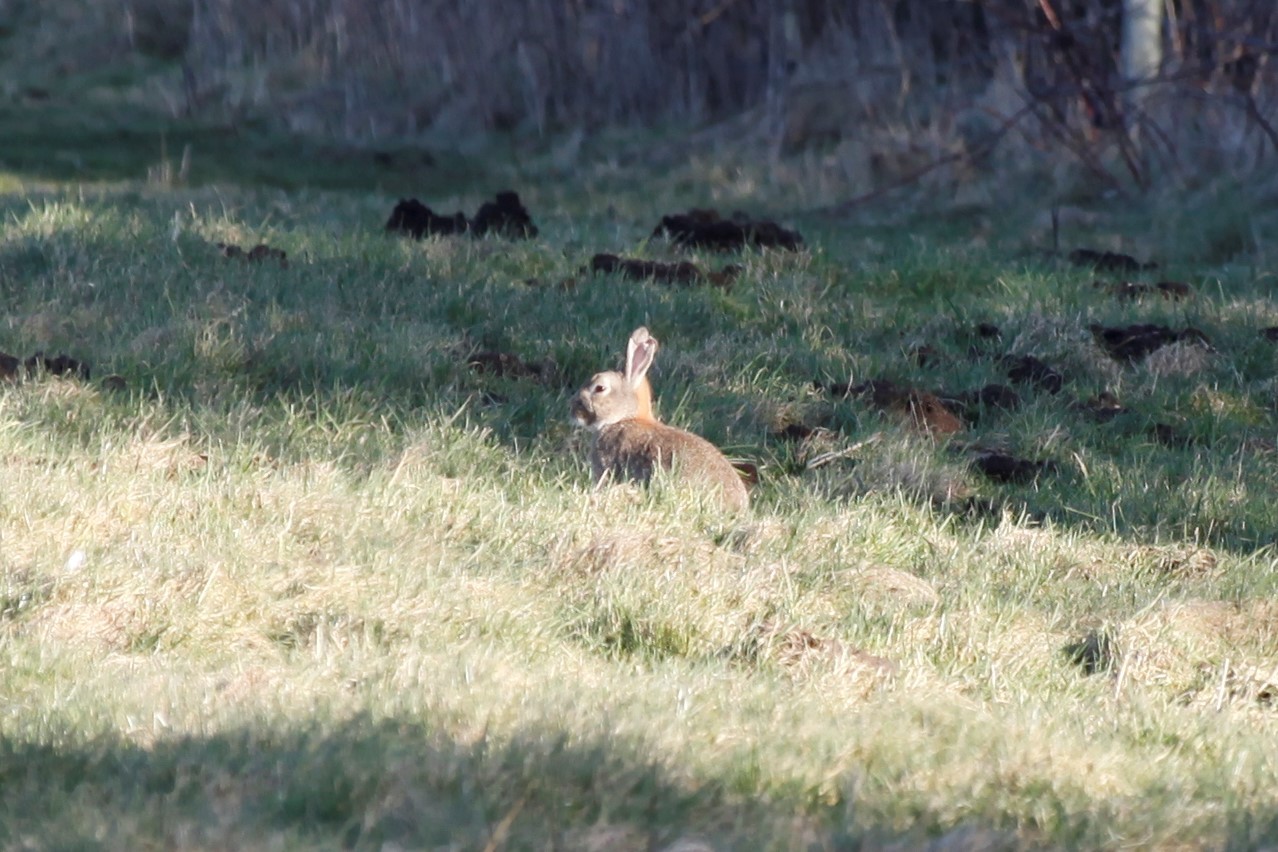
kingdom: Animalia
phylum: Chordata
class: Mammalia
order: Lagomorpha
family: Leporidae
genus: Oryctolagus
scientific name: Oryctolagus cuniculus
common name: European rabbit
